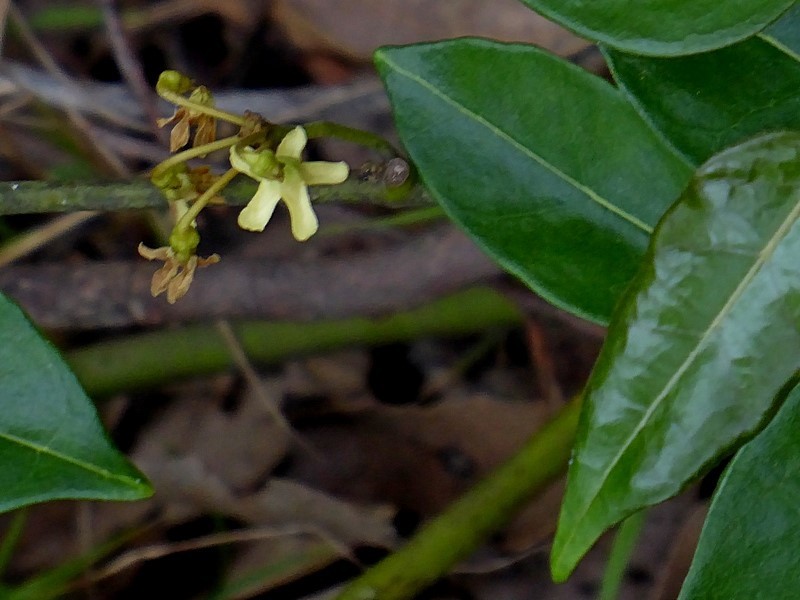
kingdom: Plantae
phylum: Tracheophyta
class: Magnoliopsida
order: Gentianales
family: Apocynaceae
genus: Leichhardtia
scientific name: Leichhardtia rostrata
